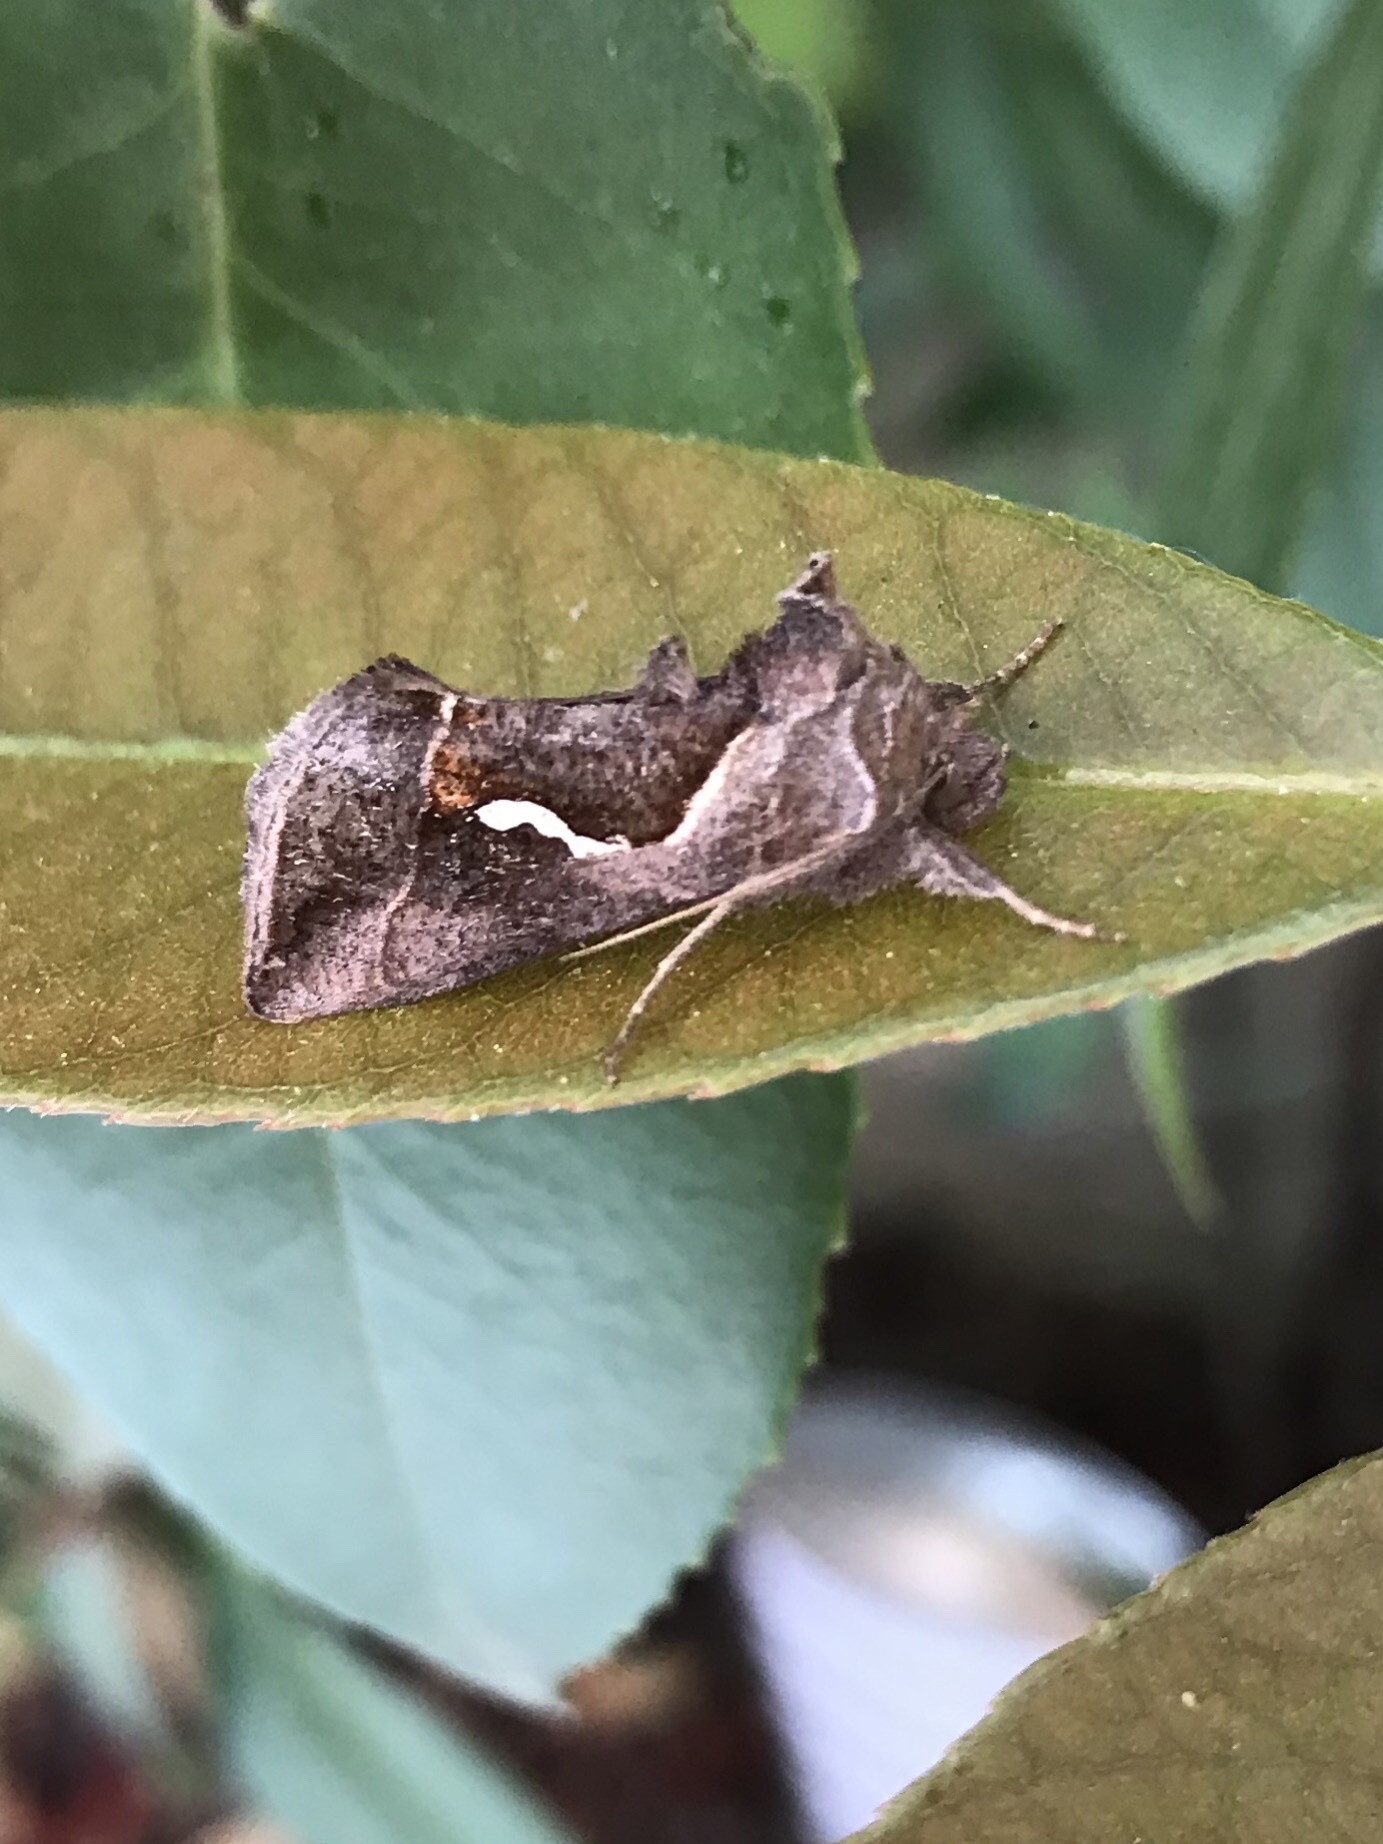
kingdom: Animalia
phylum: Arthropoda
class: Insecta
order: Lepidoptera
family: Noctuidae
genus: Macdunnoughia
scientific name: Macdunnoughia confusa
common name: Dewick's plusia
